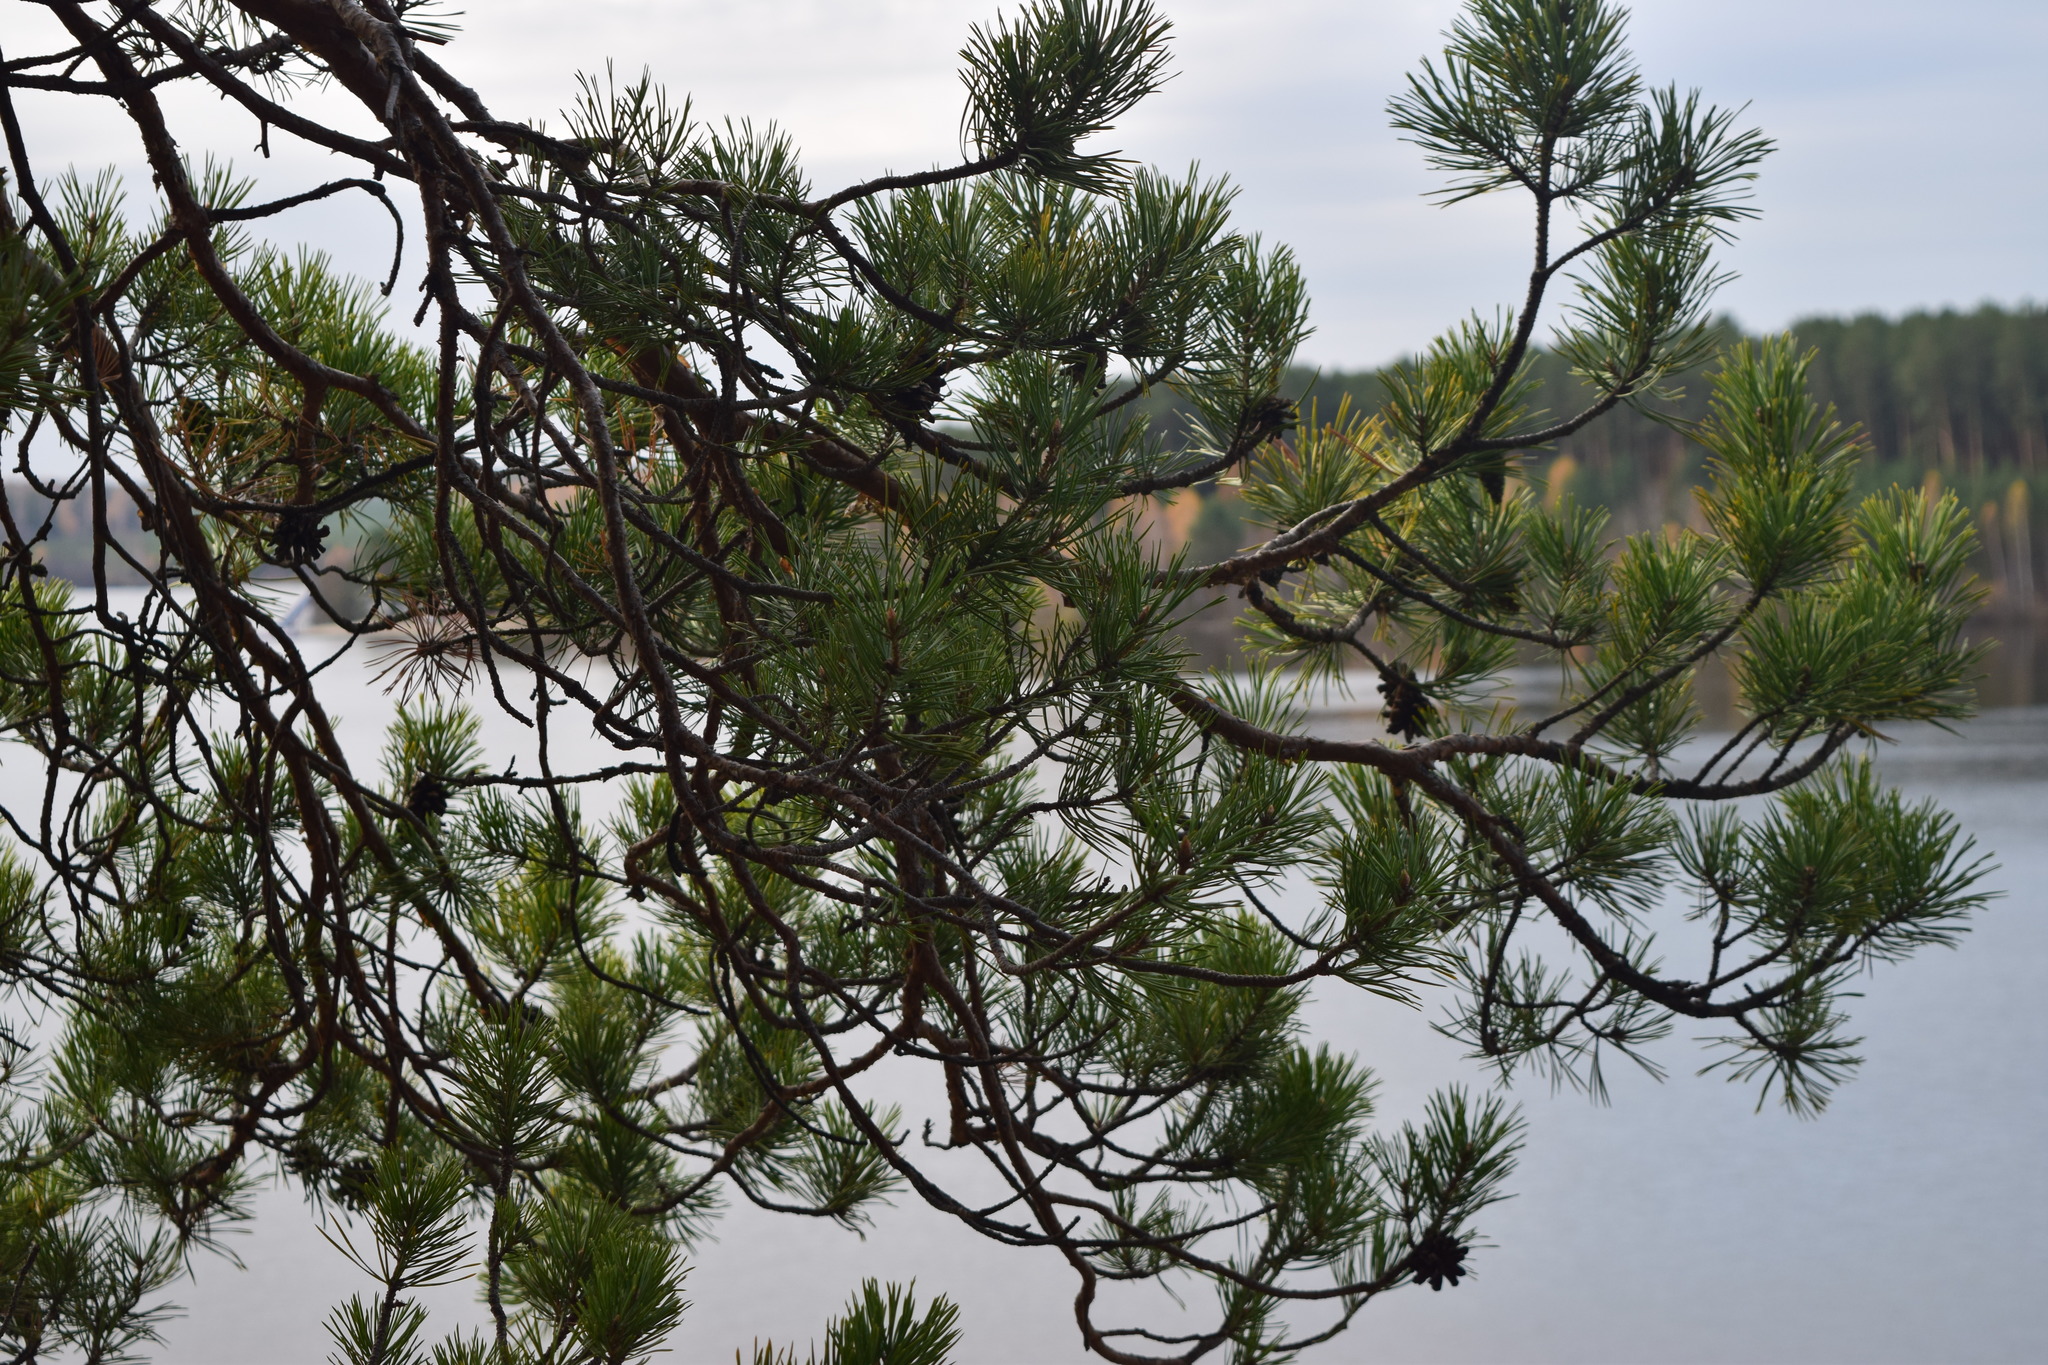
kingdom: Plantae
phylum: Tracheophyta
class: Pinopsida
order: Pinales
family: Pinaceae
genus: Pinus
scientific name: Pinus sylvestris
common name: Scots pine
